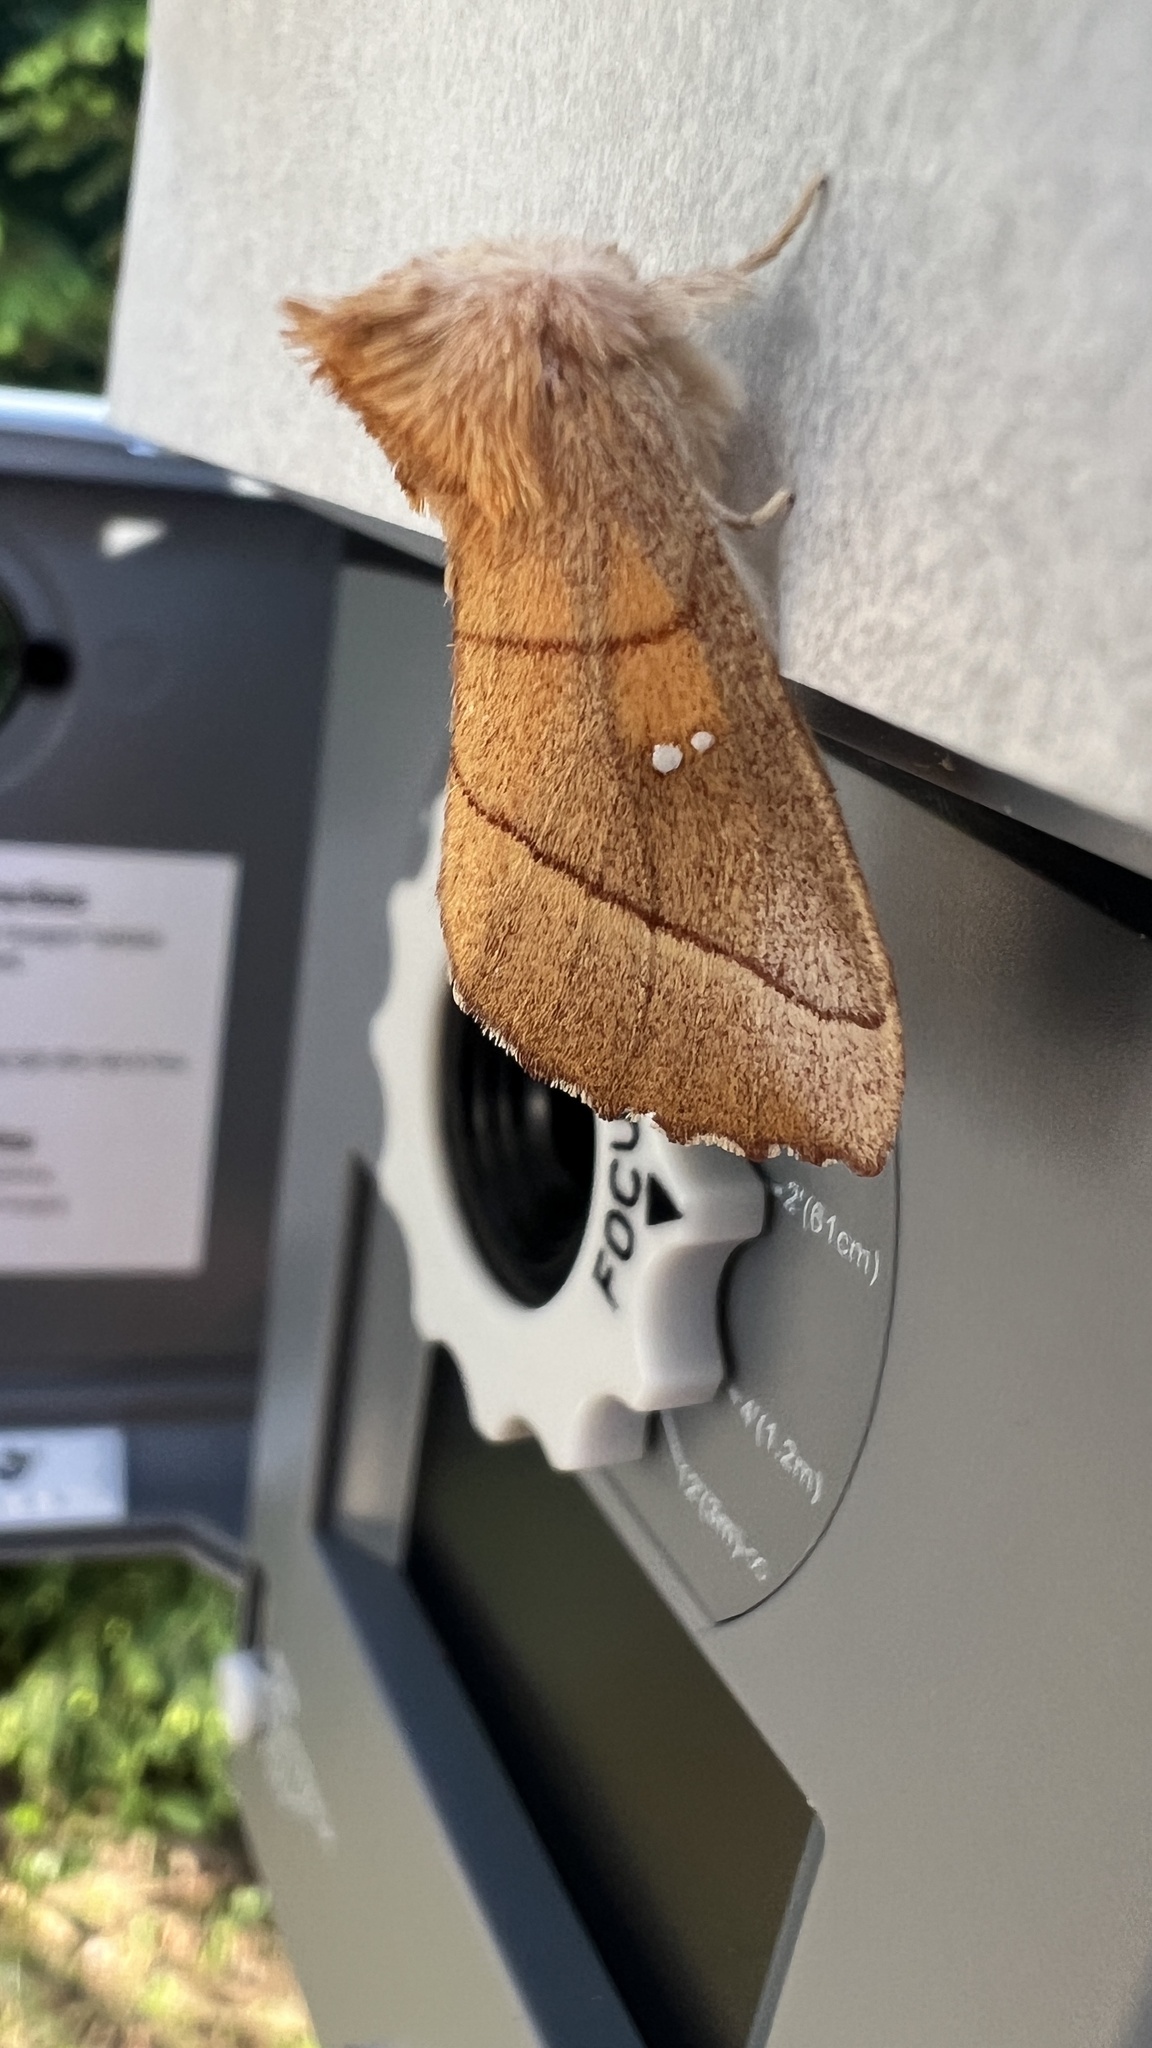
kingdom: Animalia
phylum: Arthropoda
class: Insecta
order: Lepidoptera
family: Notodontidae
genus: Nadata
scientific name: Nadata gibbosa
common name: White-dotted prominent
